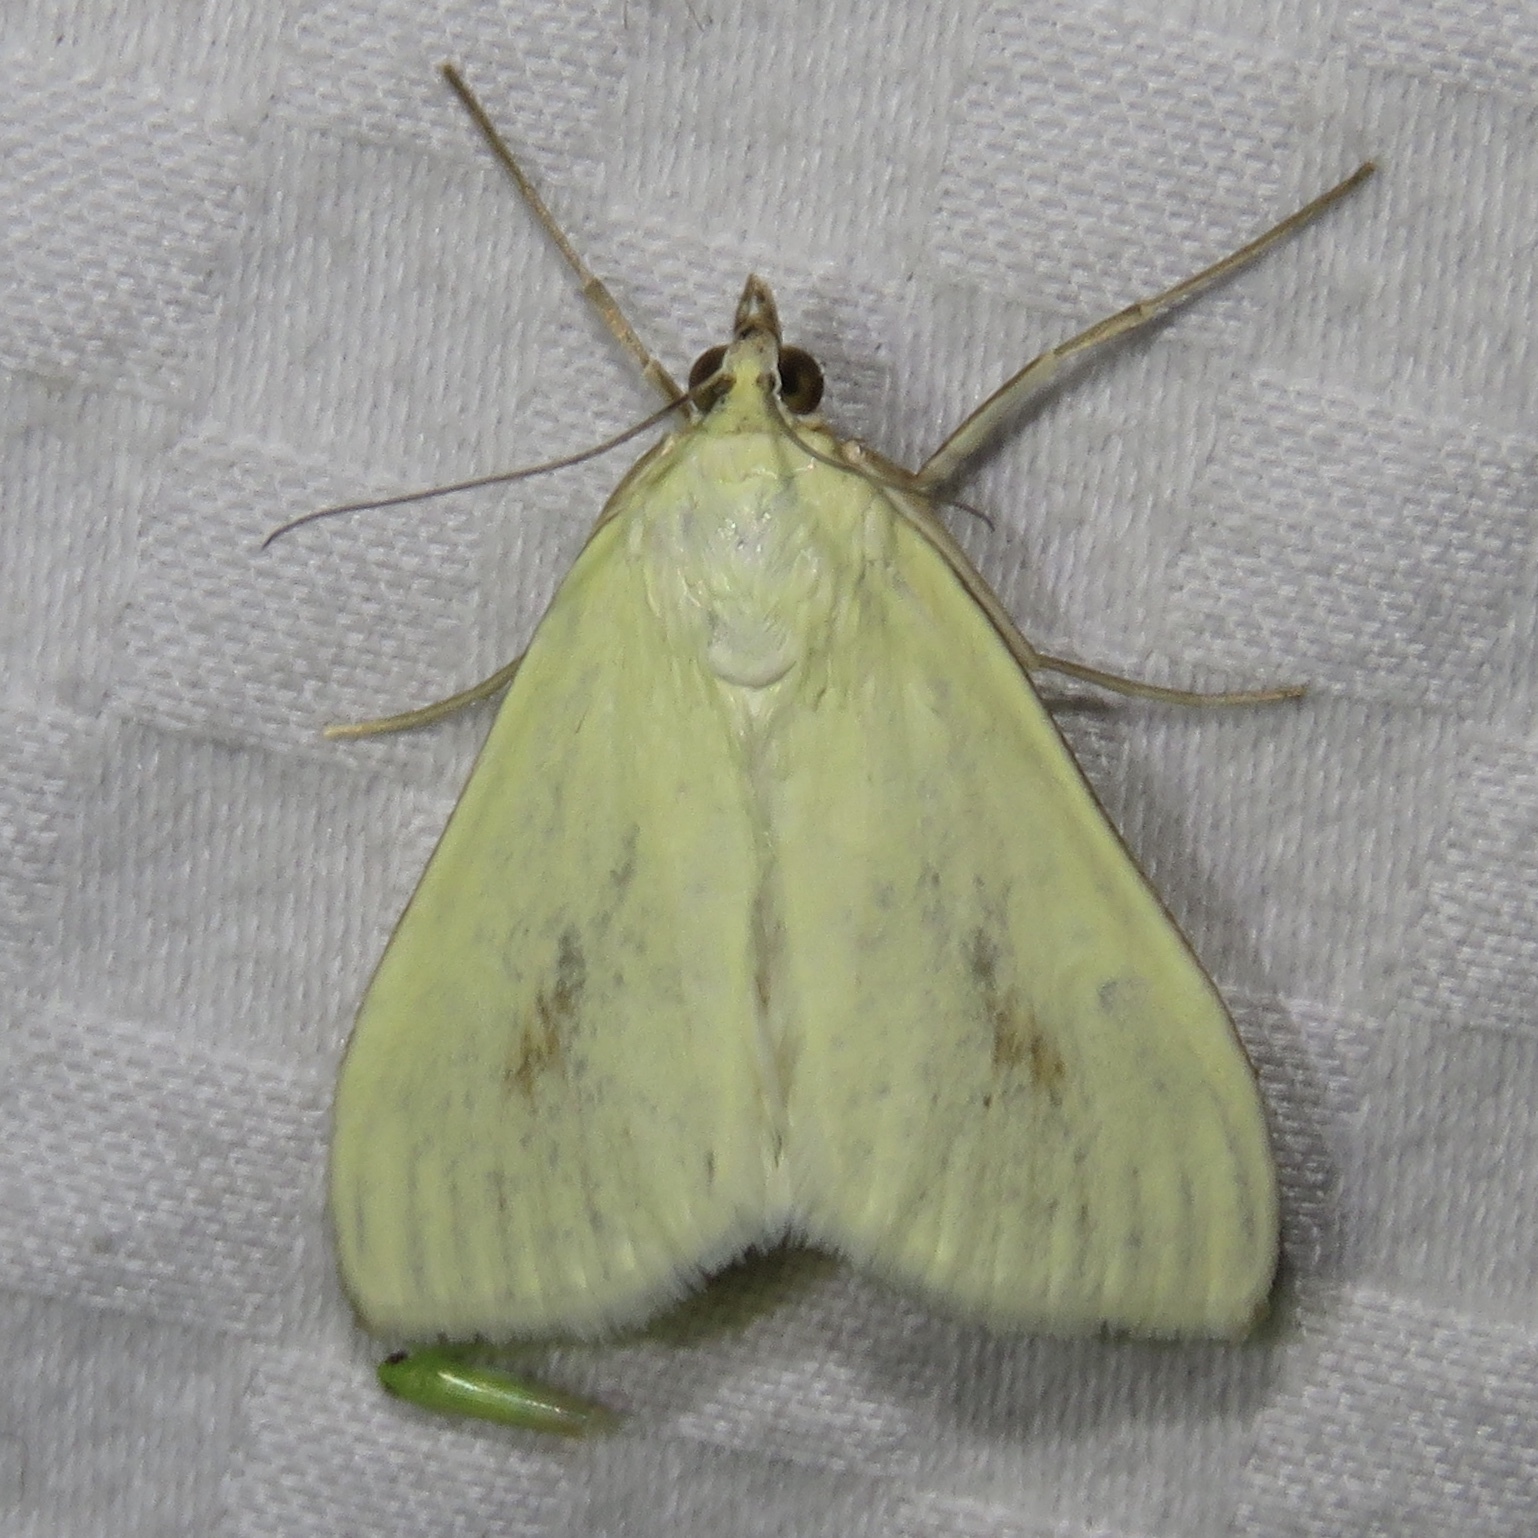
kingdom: Animalia
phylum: Arthropoda
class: Insecta
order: Lepidoptera
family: Crambidae
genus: Sitochroa
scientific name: Sitochroa palealis
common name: Greenish-yellow sitochroa moth
